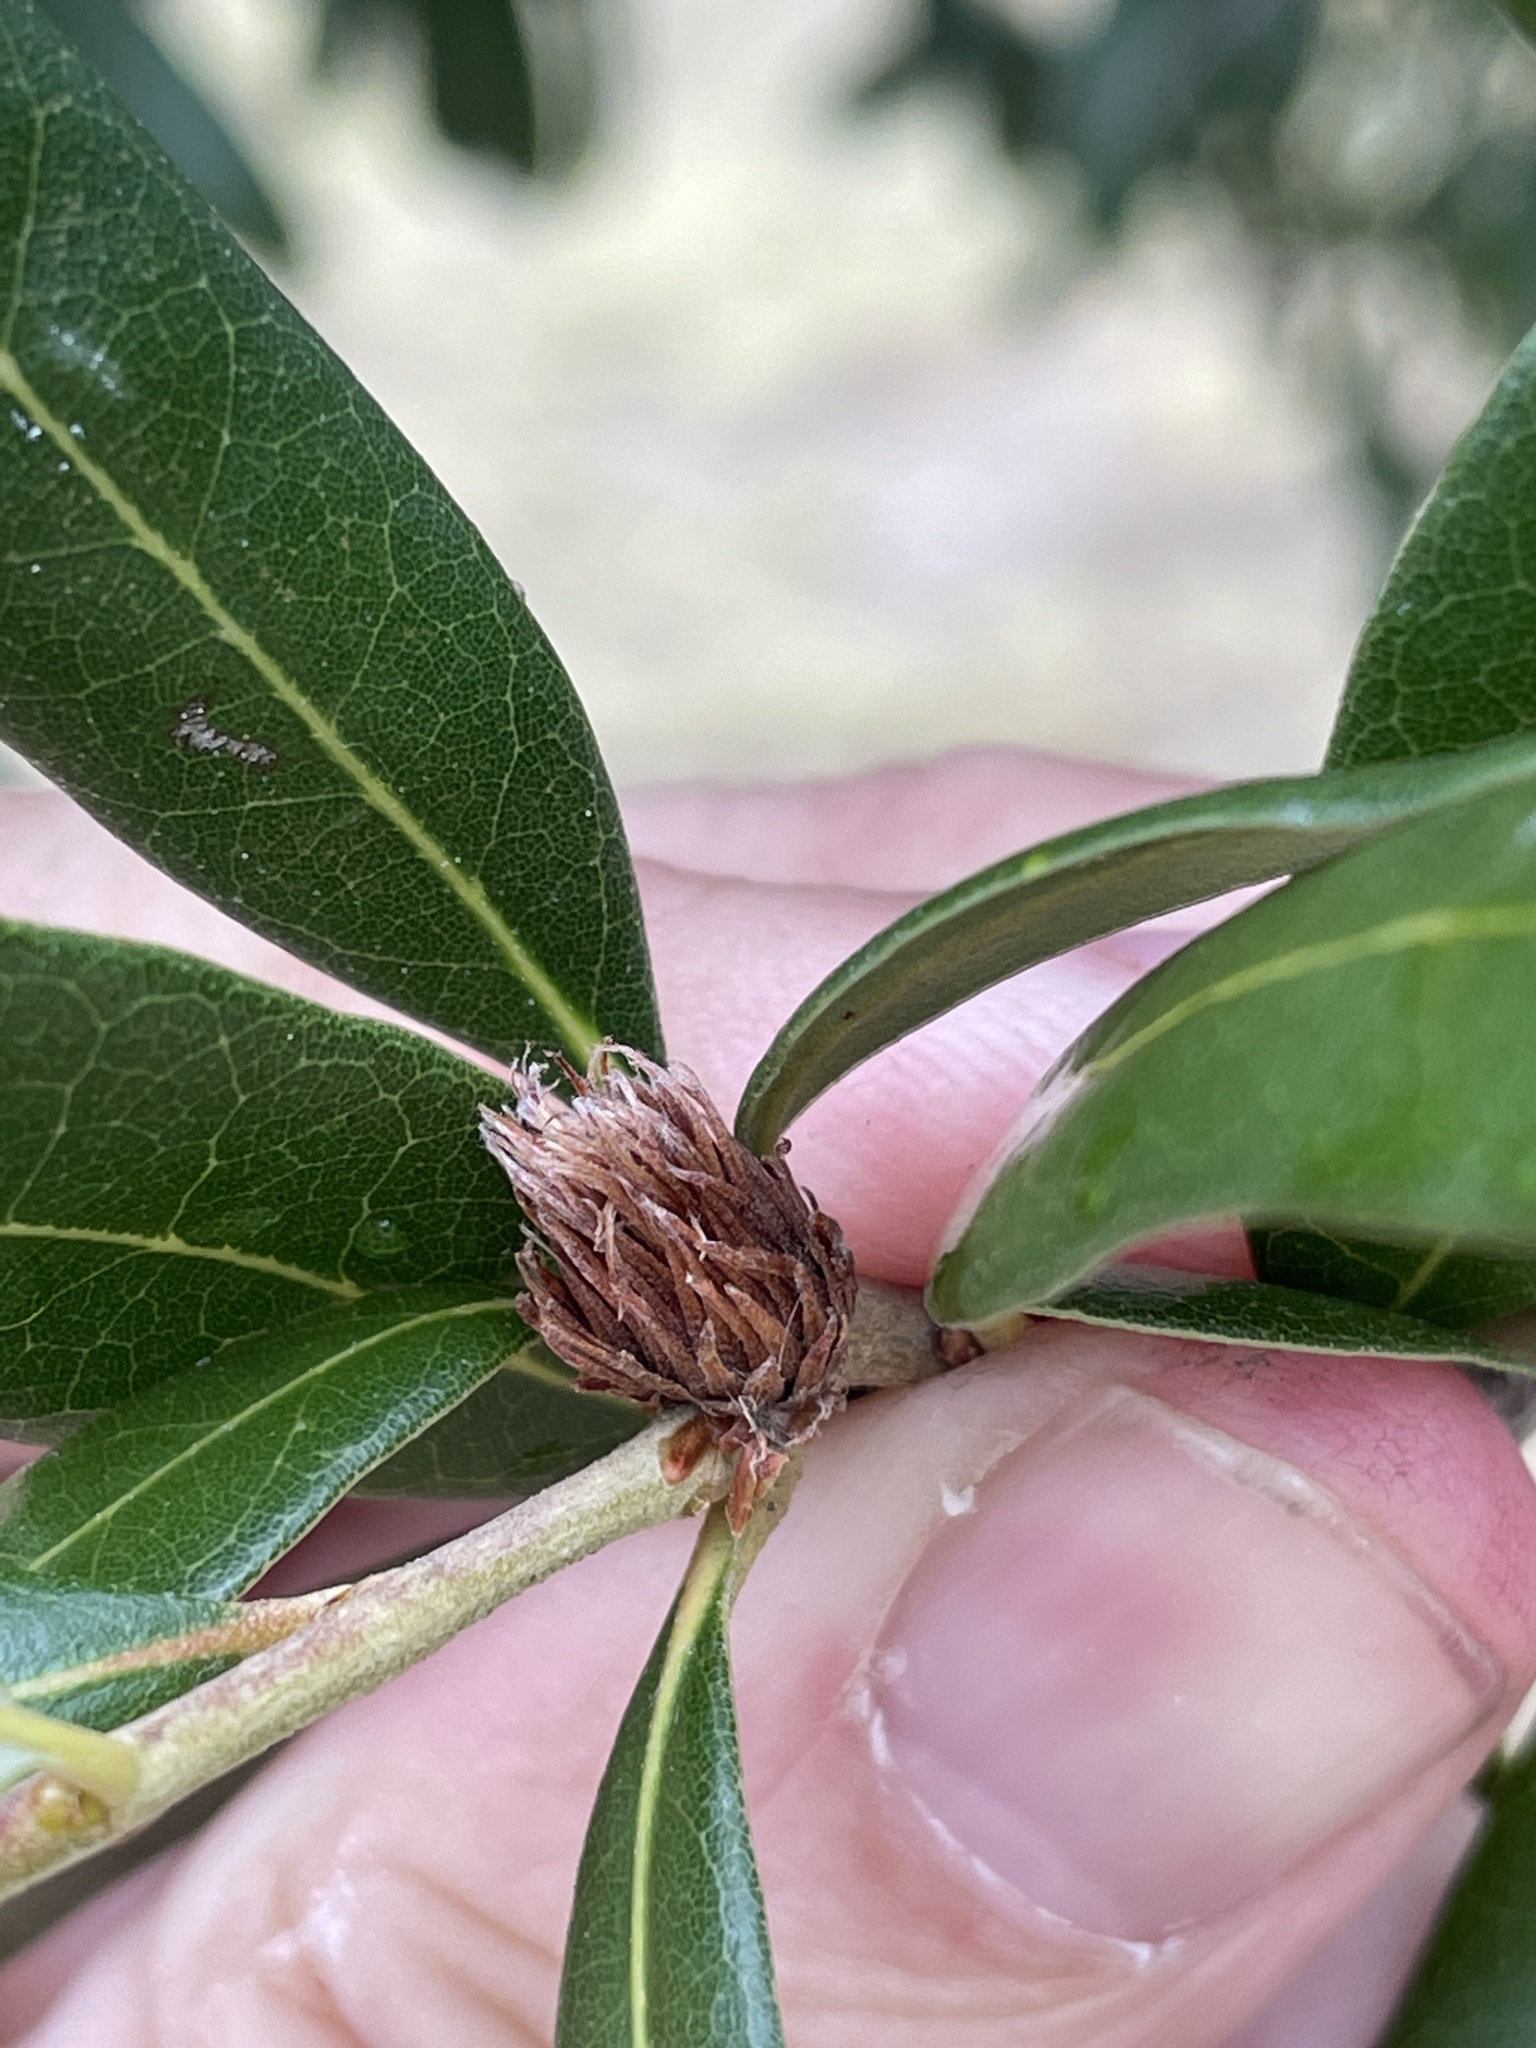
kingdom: Animalia
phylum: Arthropoda
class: Insecta
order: Hymenoptera
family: Cynipidae
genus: Andricus
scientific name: Andricus quercusfoliatus
